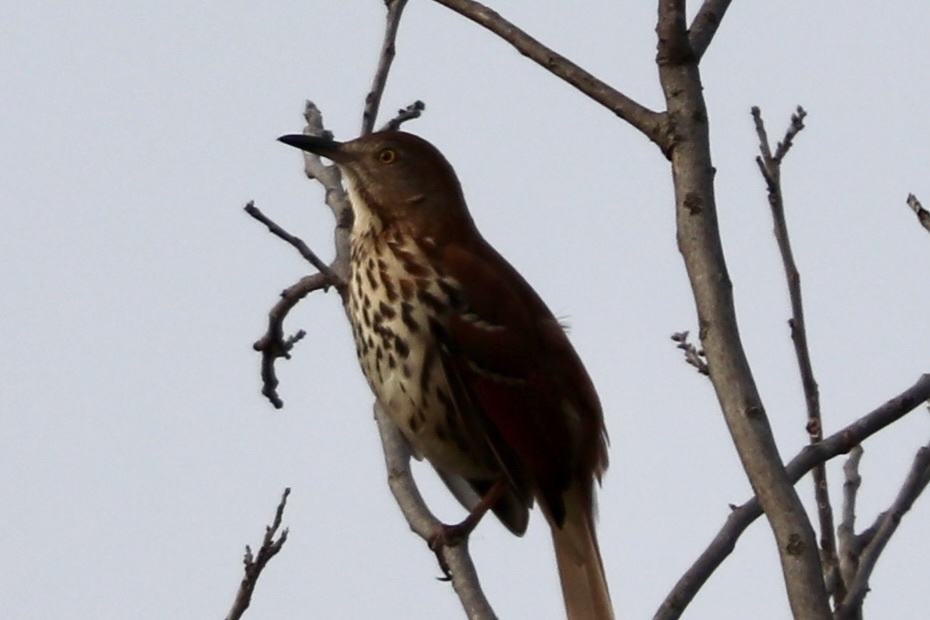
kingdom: Animalia
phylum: Chordata
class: Aves
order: Passeriformes
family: Mimidae
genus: Toxostoma
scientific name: Toxostoma rufum
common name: Brown thrasher
